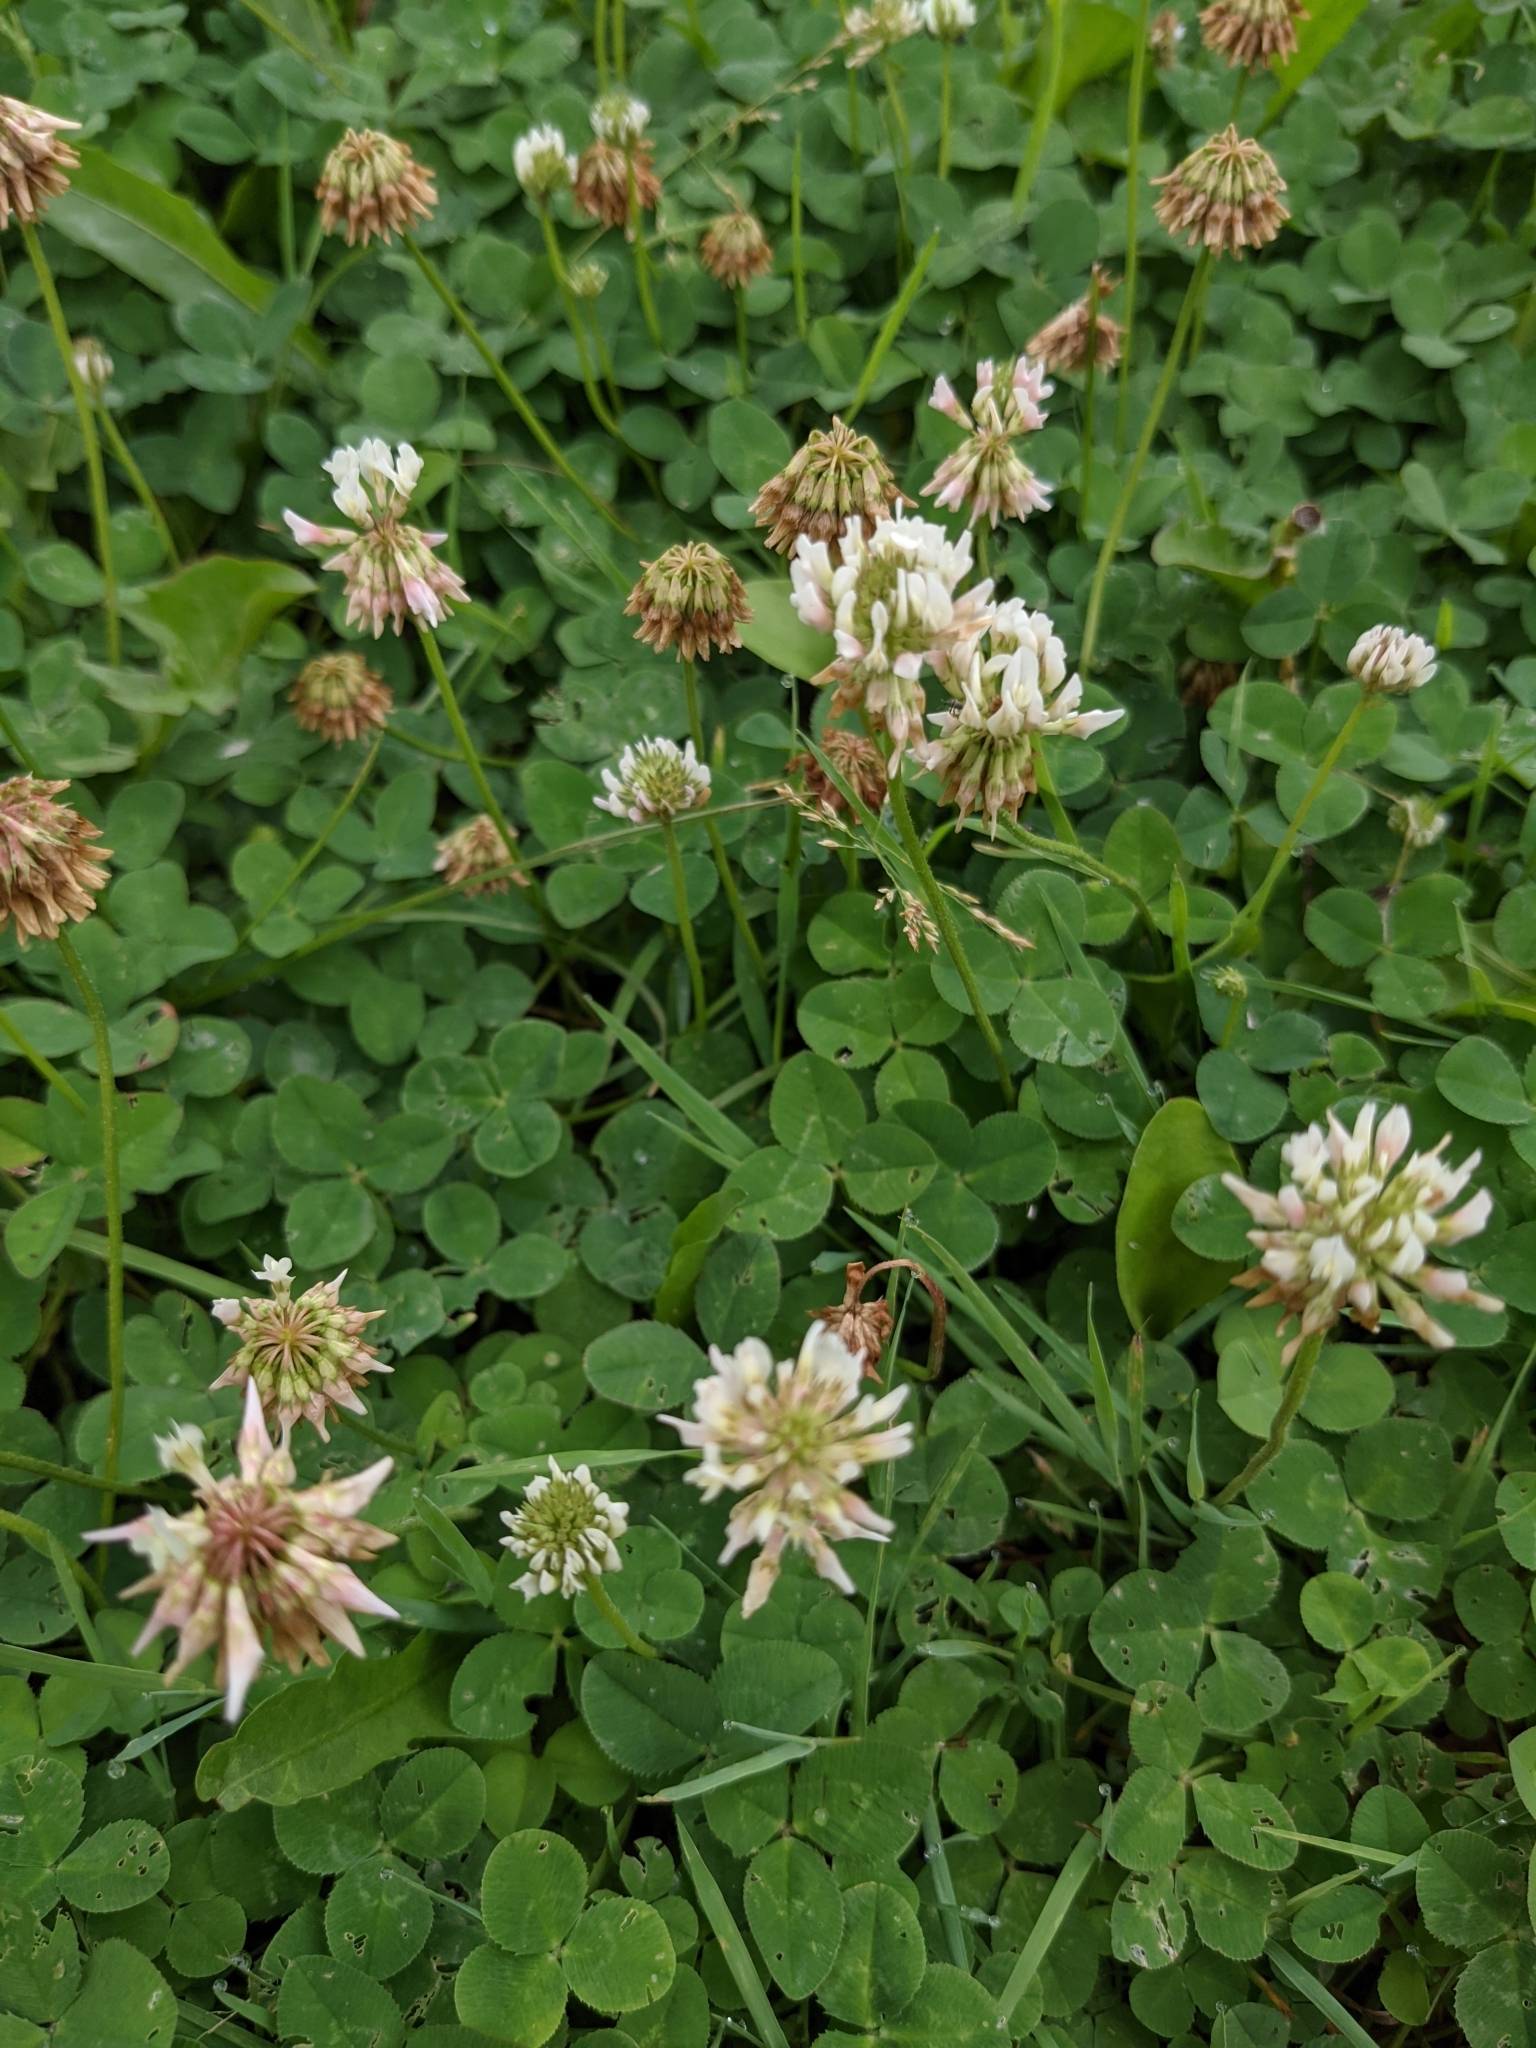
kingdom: Plantae
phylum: Tracheophyta
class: Magnoliopsida
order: Fabales
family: Fabaceae
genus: Trifolium
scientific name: Trifolium repens
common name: White clover
